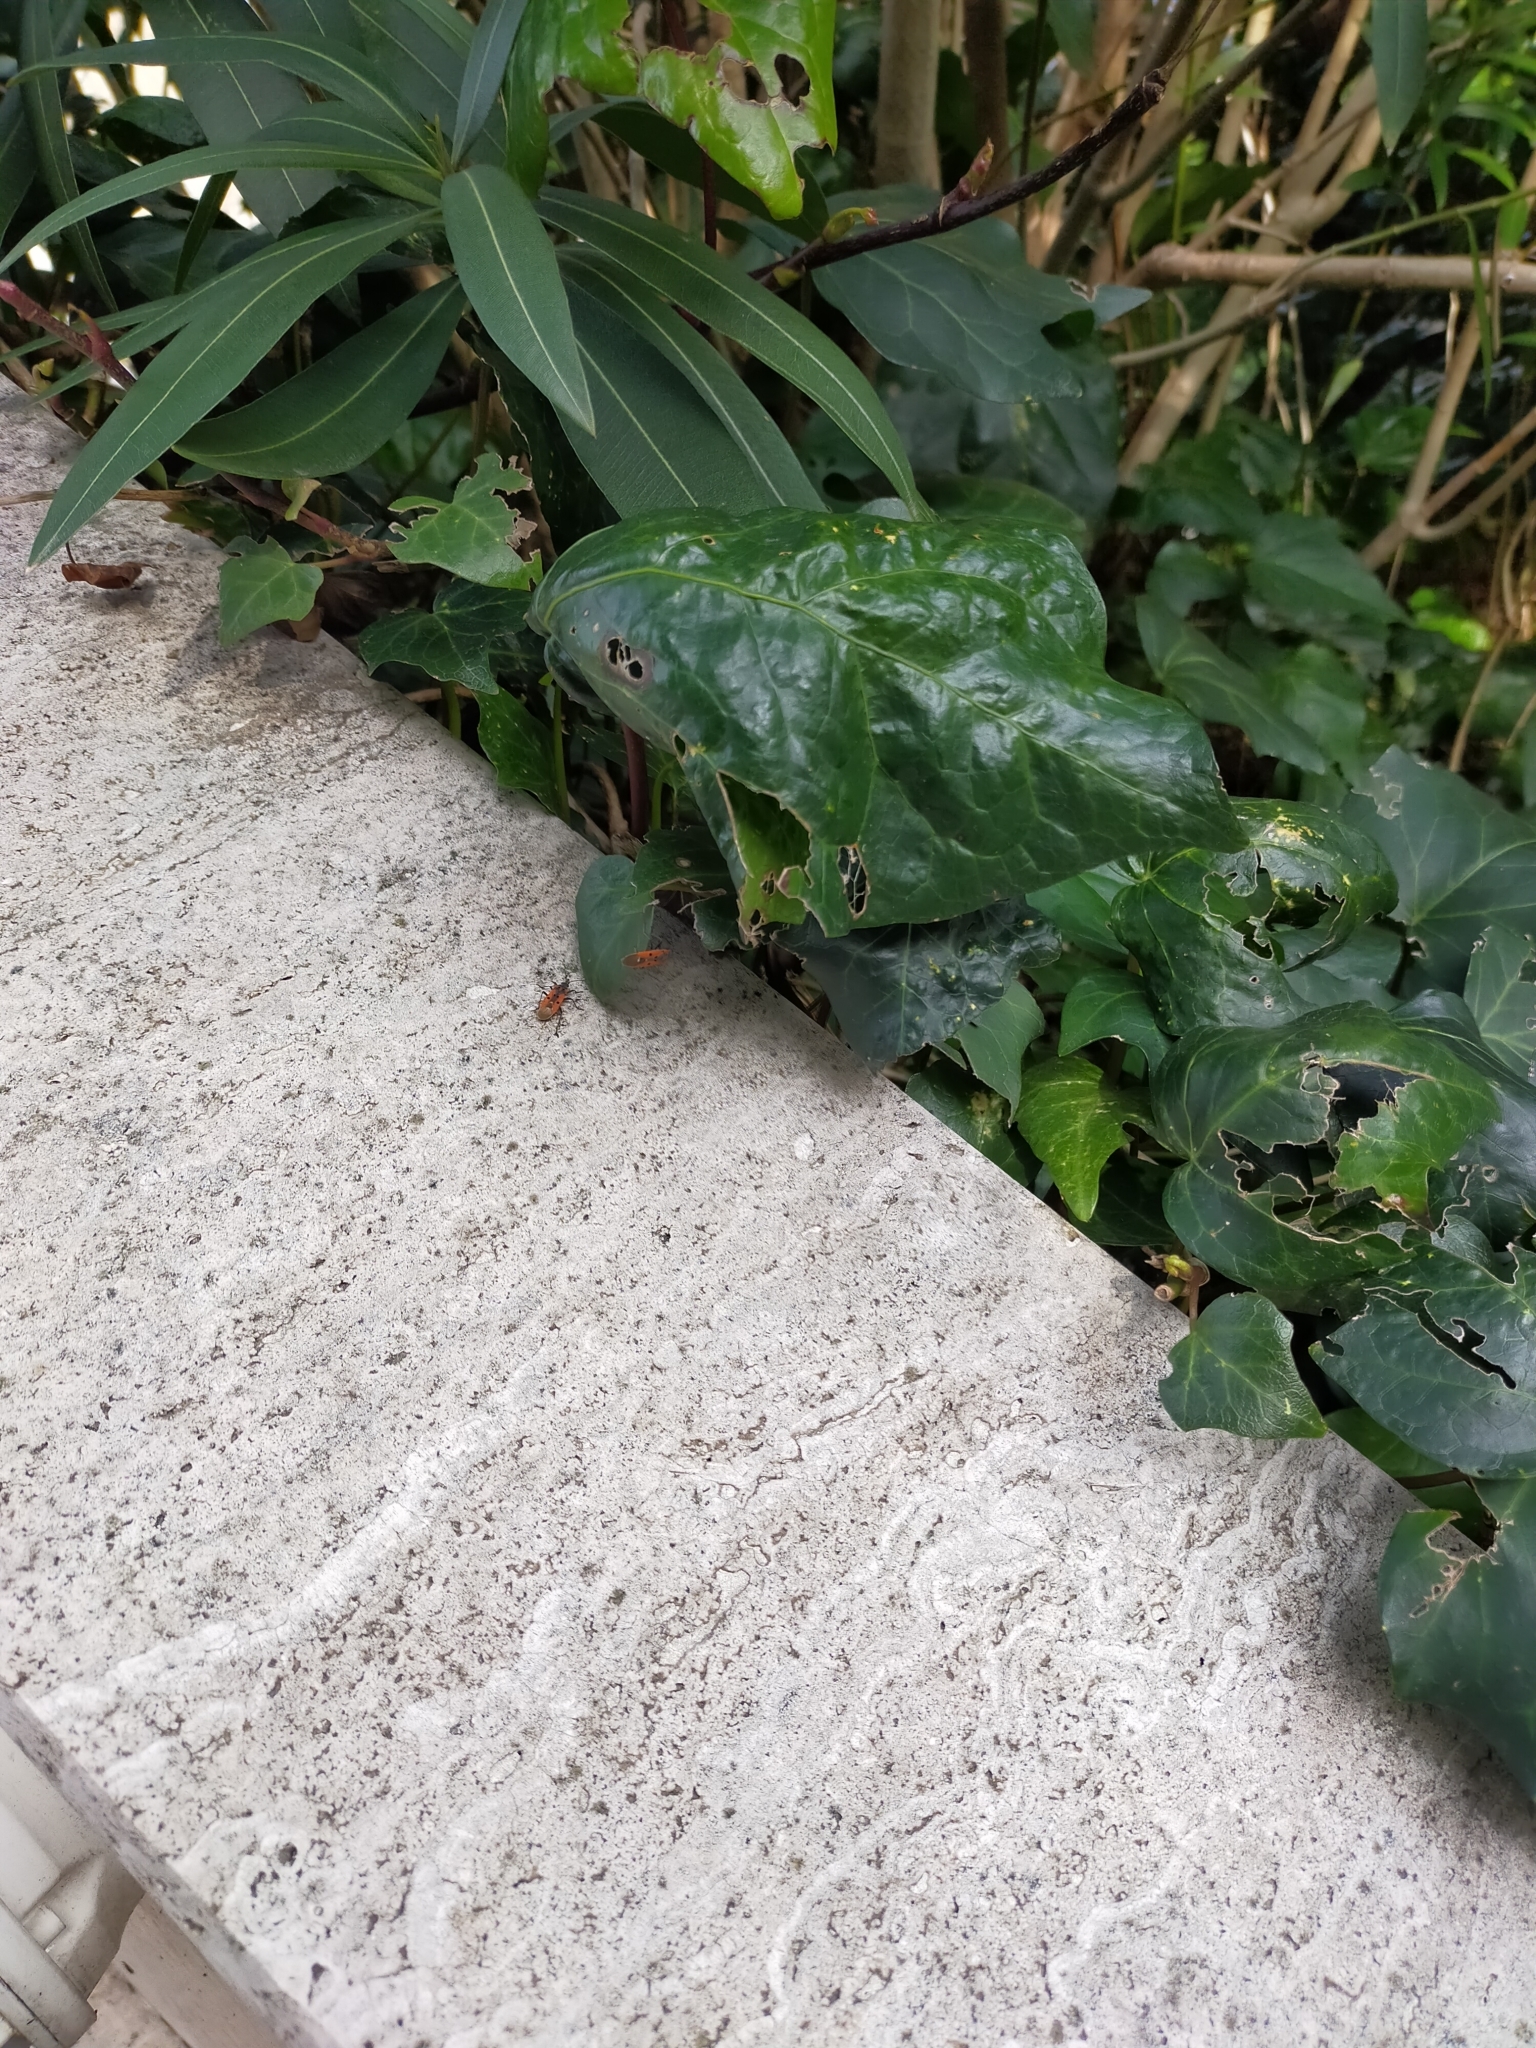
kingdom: Animalia
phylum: Arthropoda
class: Insecta
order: Hemiptera
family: Lygaeidae
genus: Lygaeus
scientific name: Lygaeus creticus
